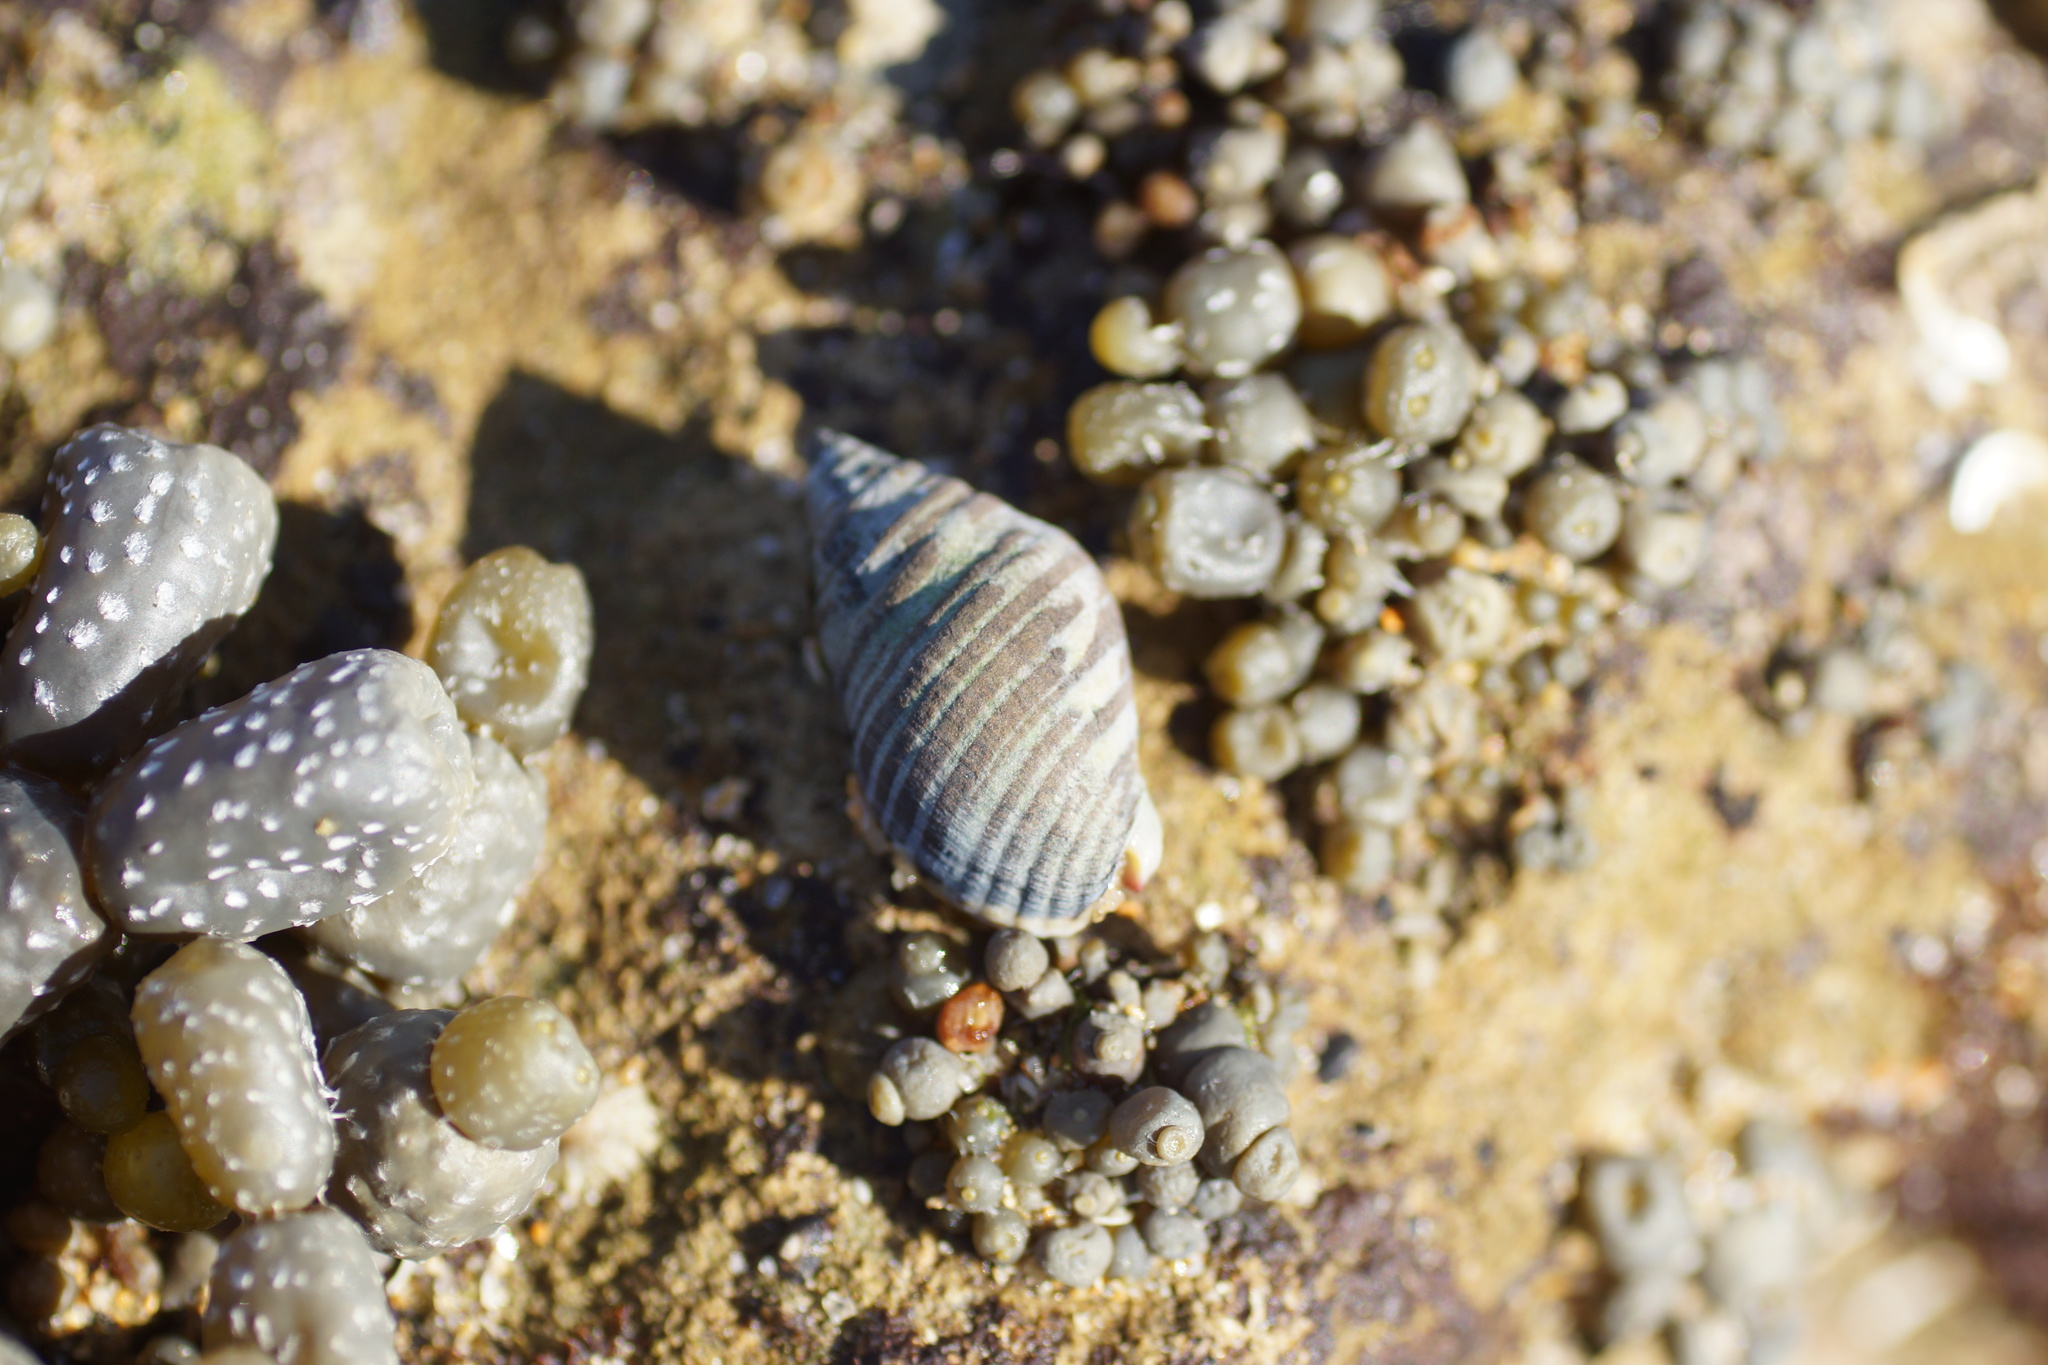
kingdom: Animalia
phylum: Mollusca
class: Gastropoda
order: Neogastropoda
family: Cominellidae
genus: Cominella
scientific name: Cominella lineolata
